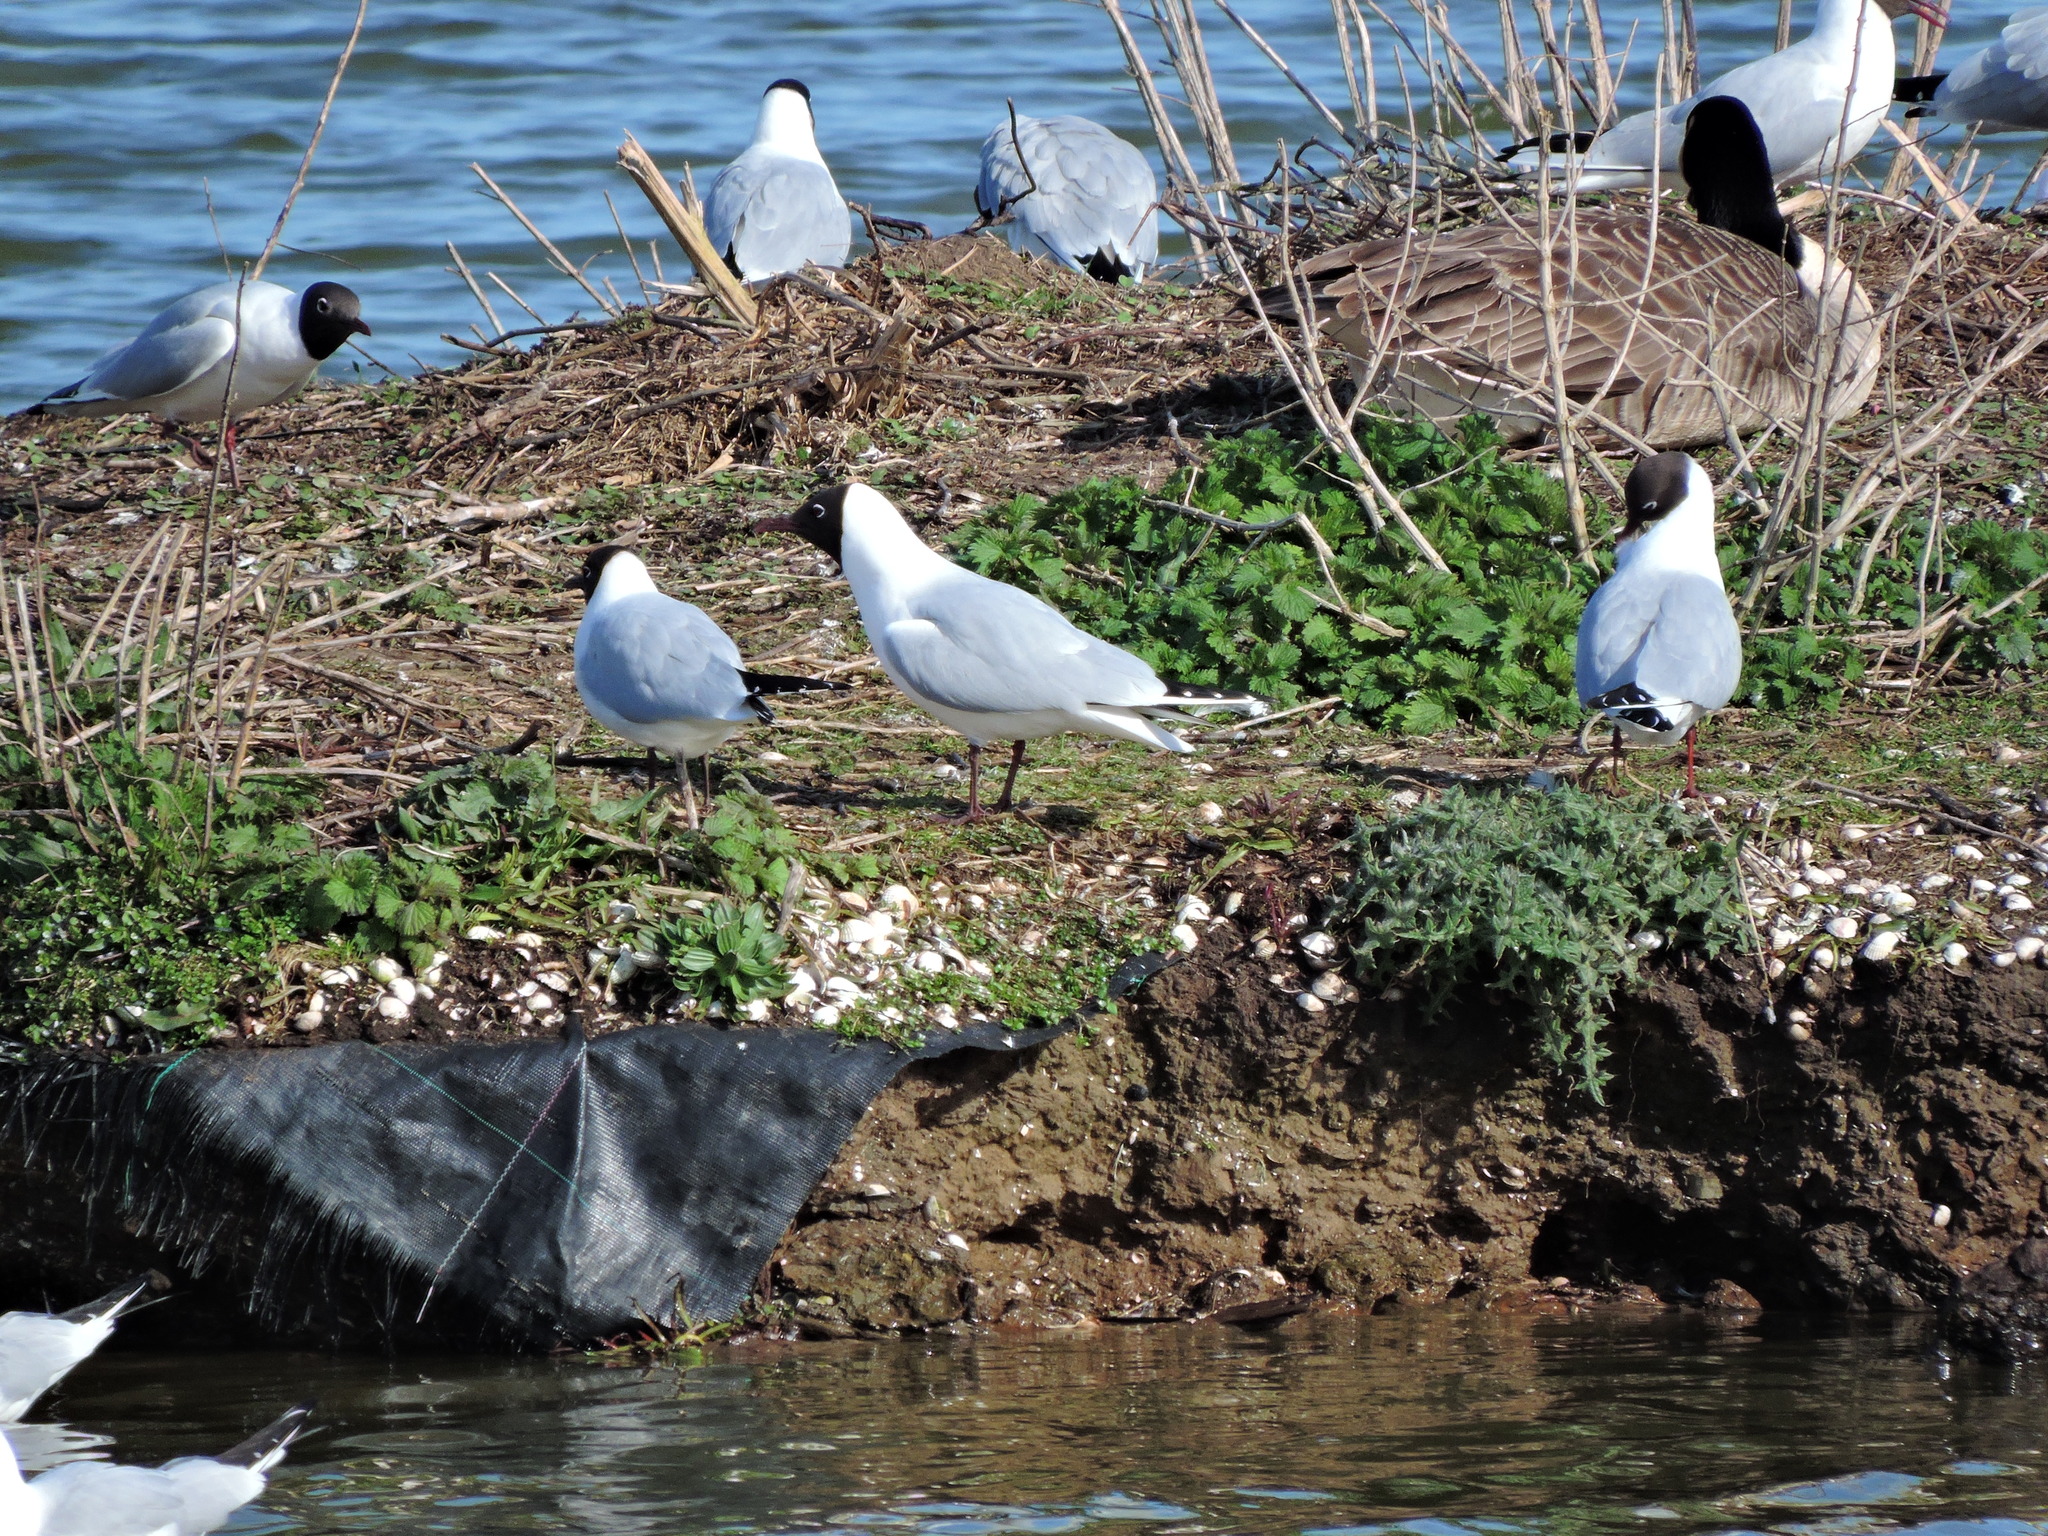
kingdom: Animalia
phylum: Chordata
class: Aves
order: Charadriiformes
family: Laridae
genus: Chroicocephalus
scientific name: Chroicocephalus ridibundus
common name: Black-headed gull
